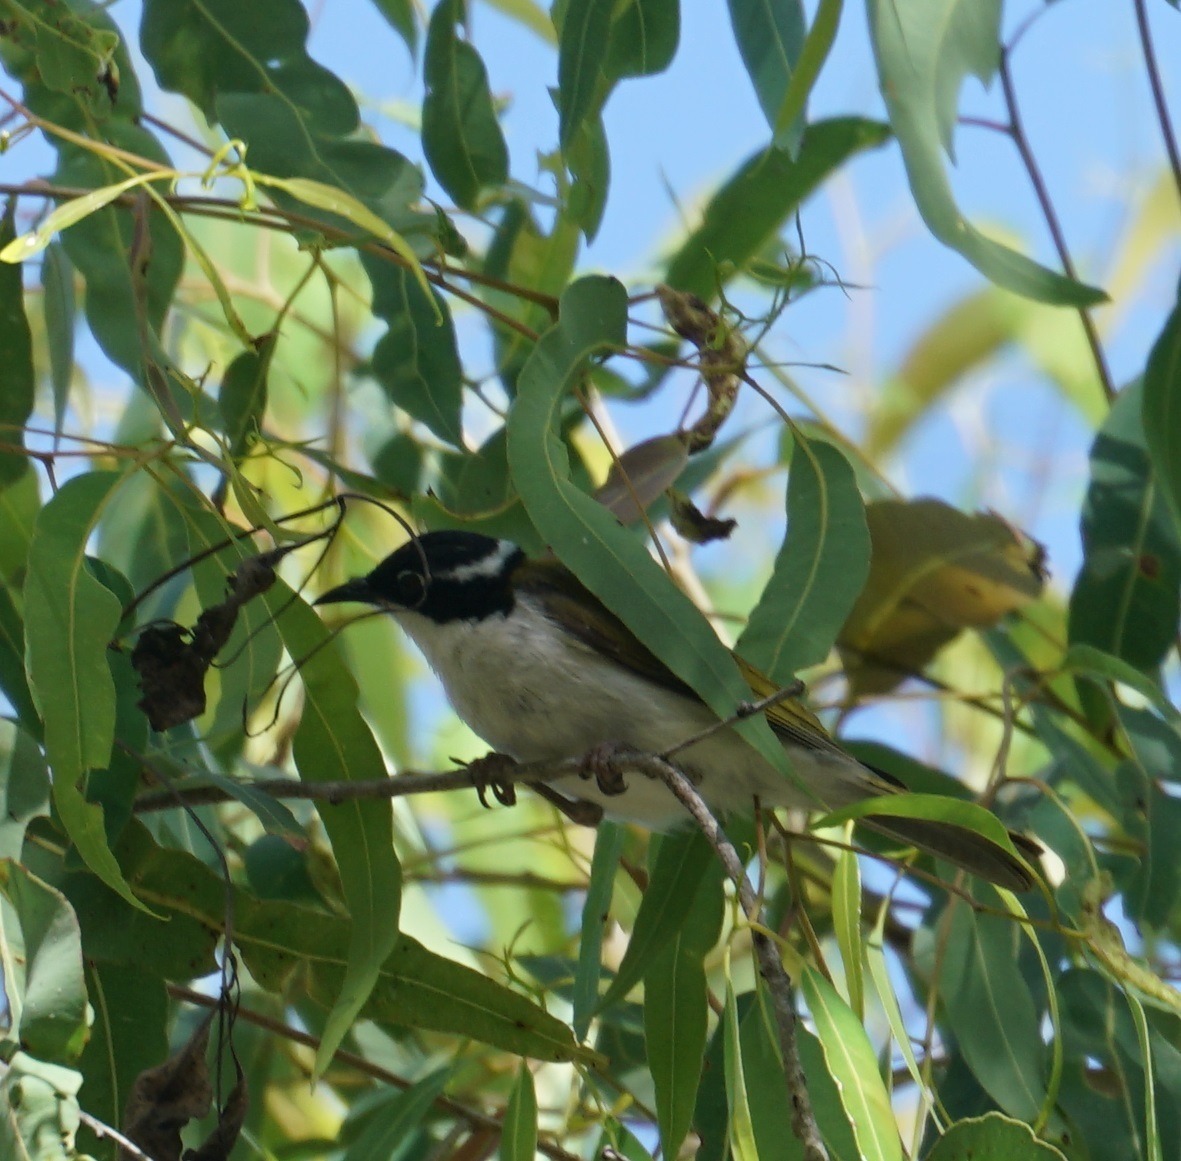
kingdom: Animalia
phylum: Chordata
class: Aves
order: Passeriformes
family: Meliphagidae
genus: Melithreptus
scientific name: Melithreptus albogularis
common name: White-throated honeyeater
